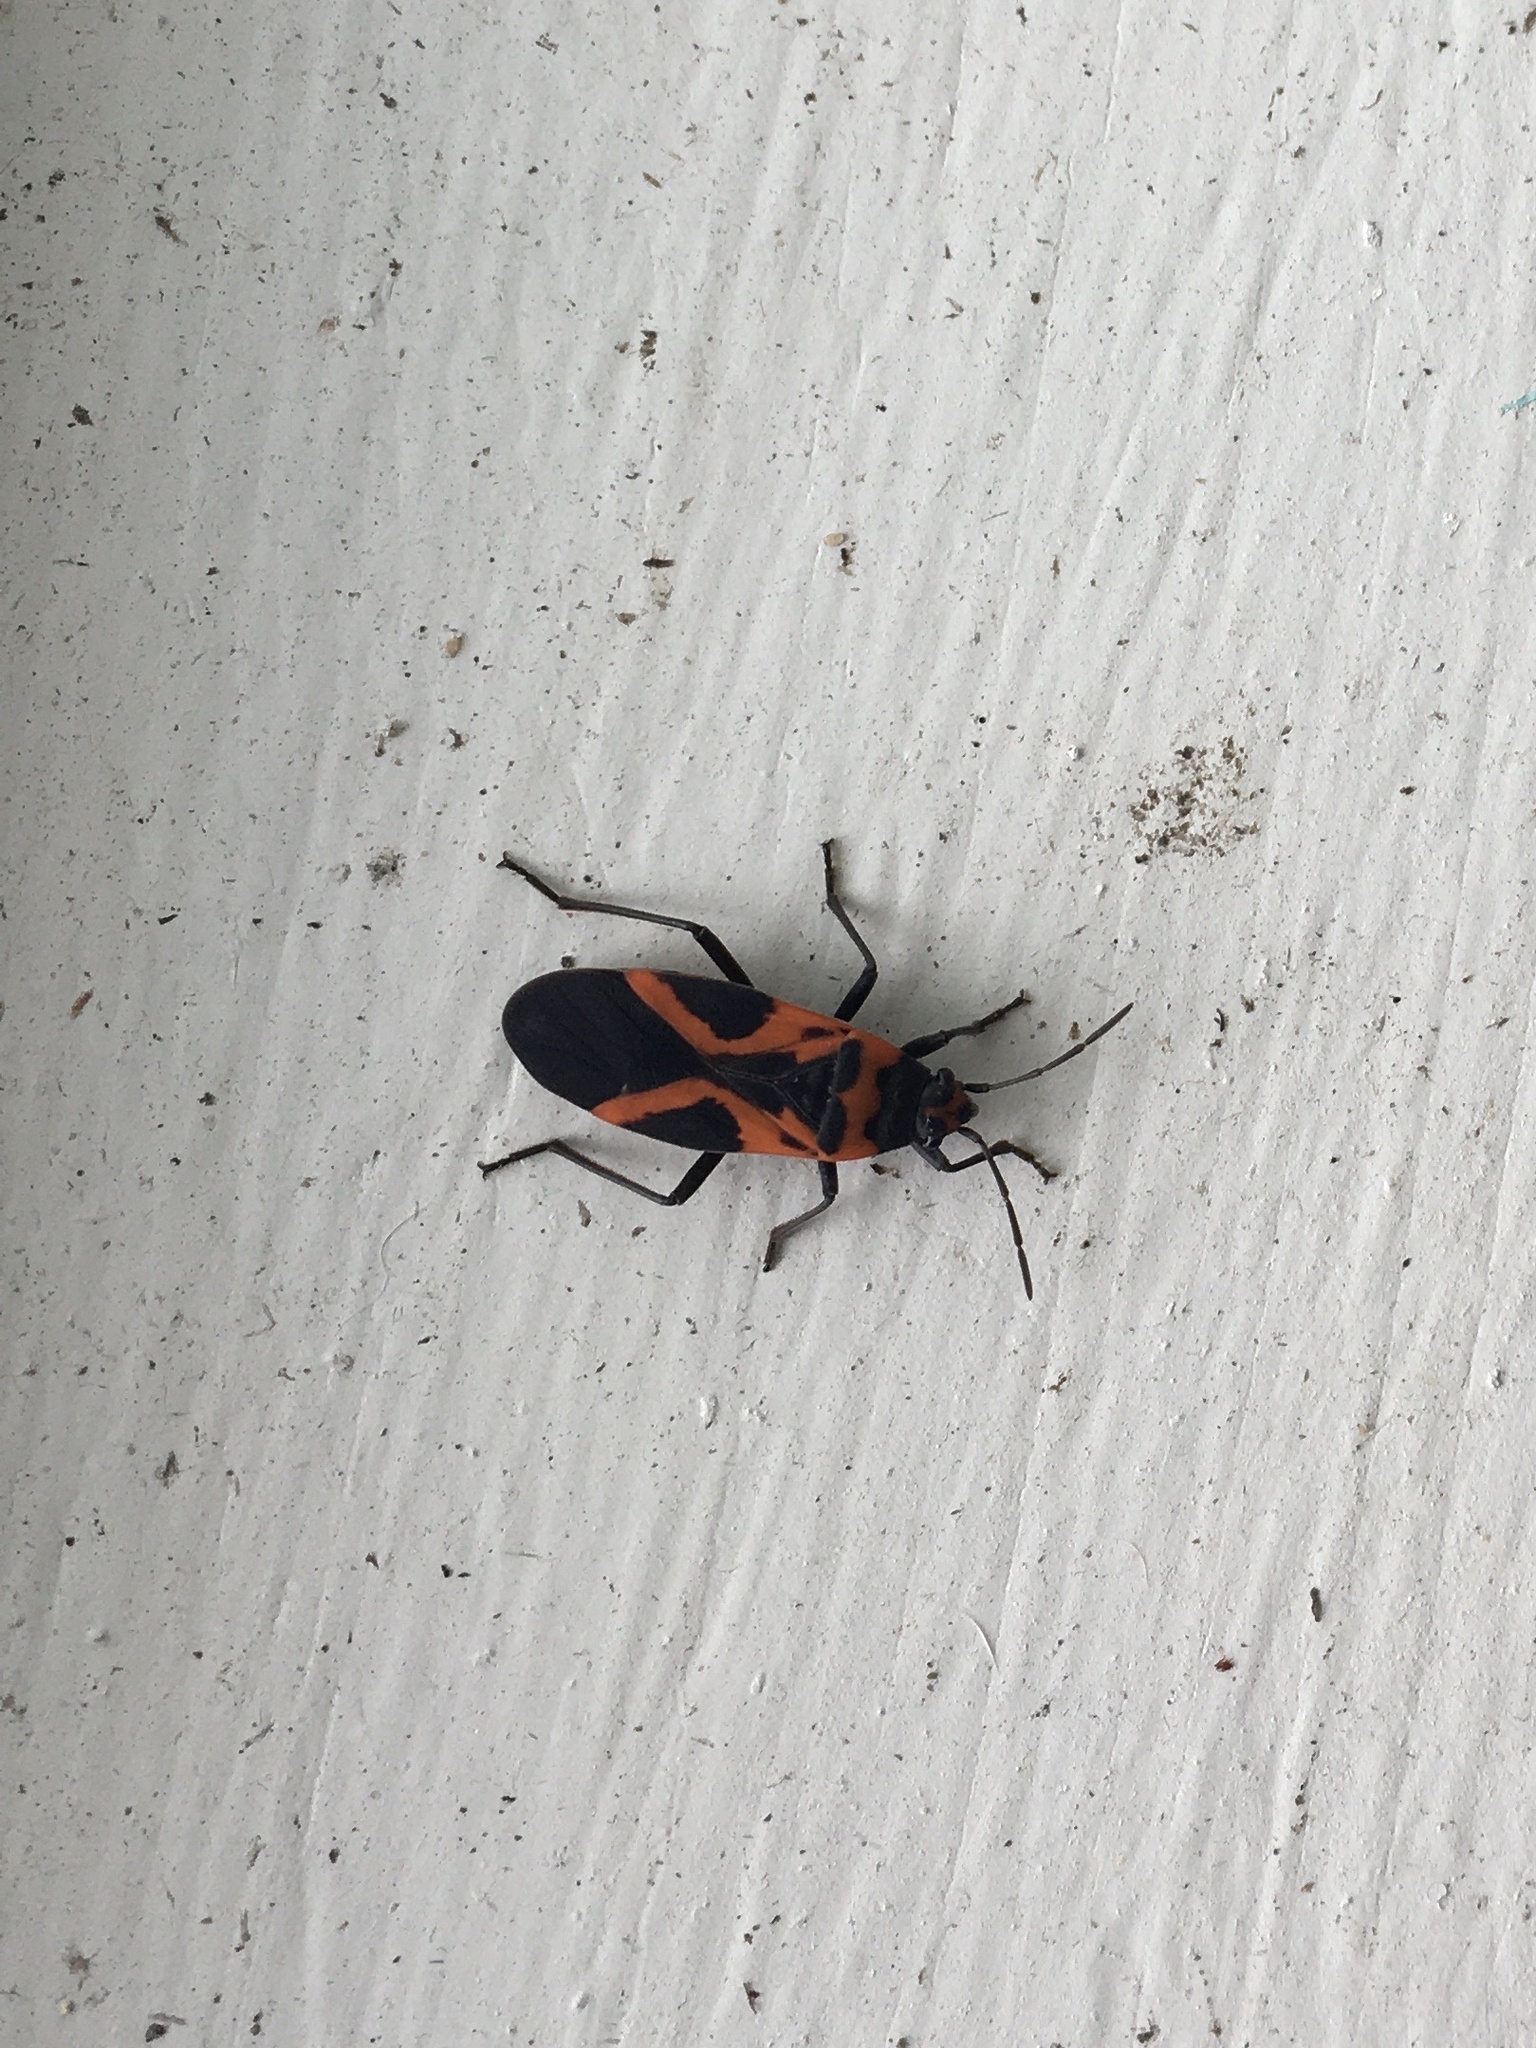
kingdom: Animalia
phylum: Arthropoda
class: Insecta
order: Hemiptera
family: Lygaeidae
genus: Lygaeus
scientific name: Lygaeus turcicus
